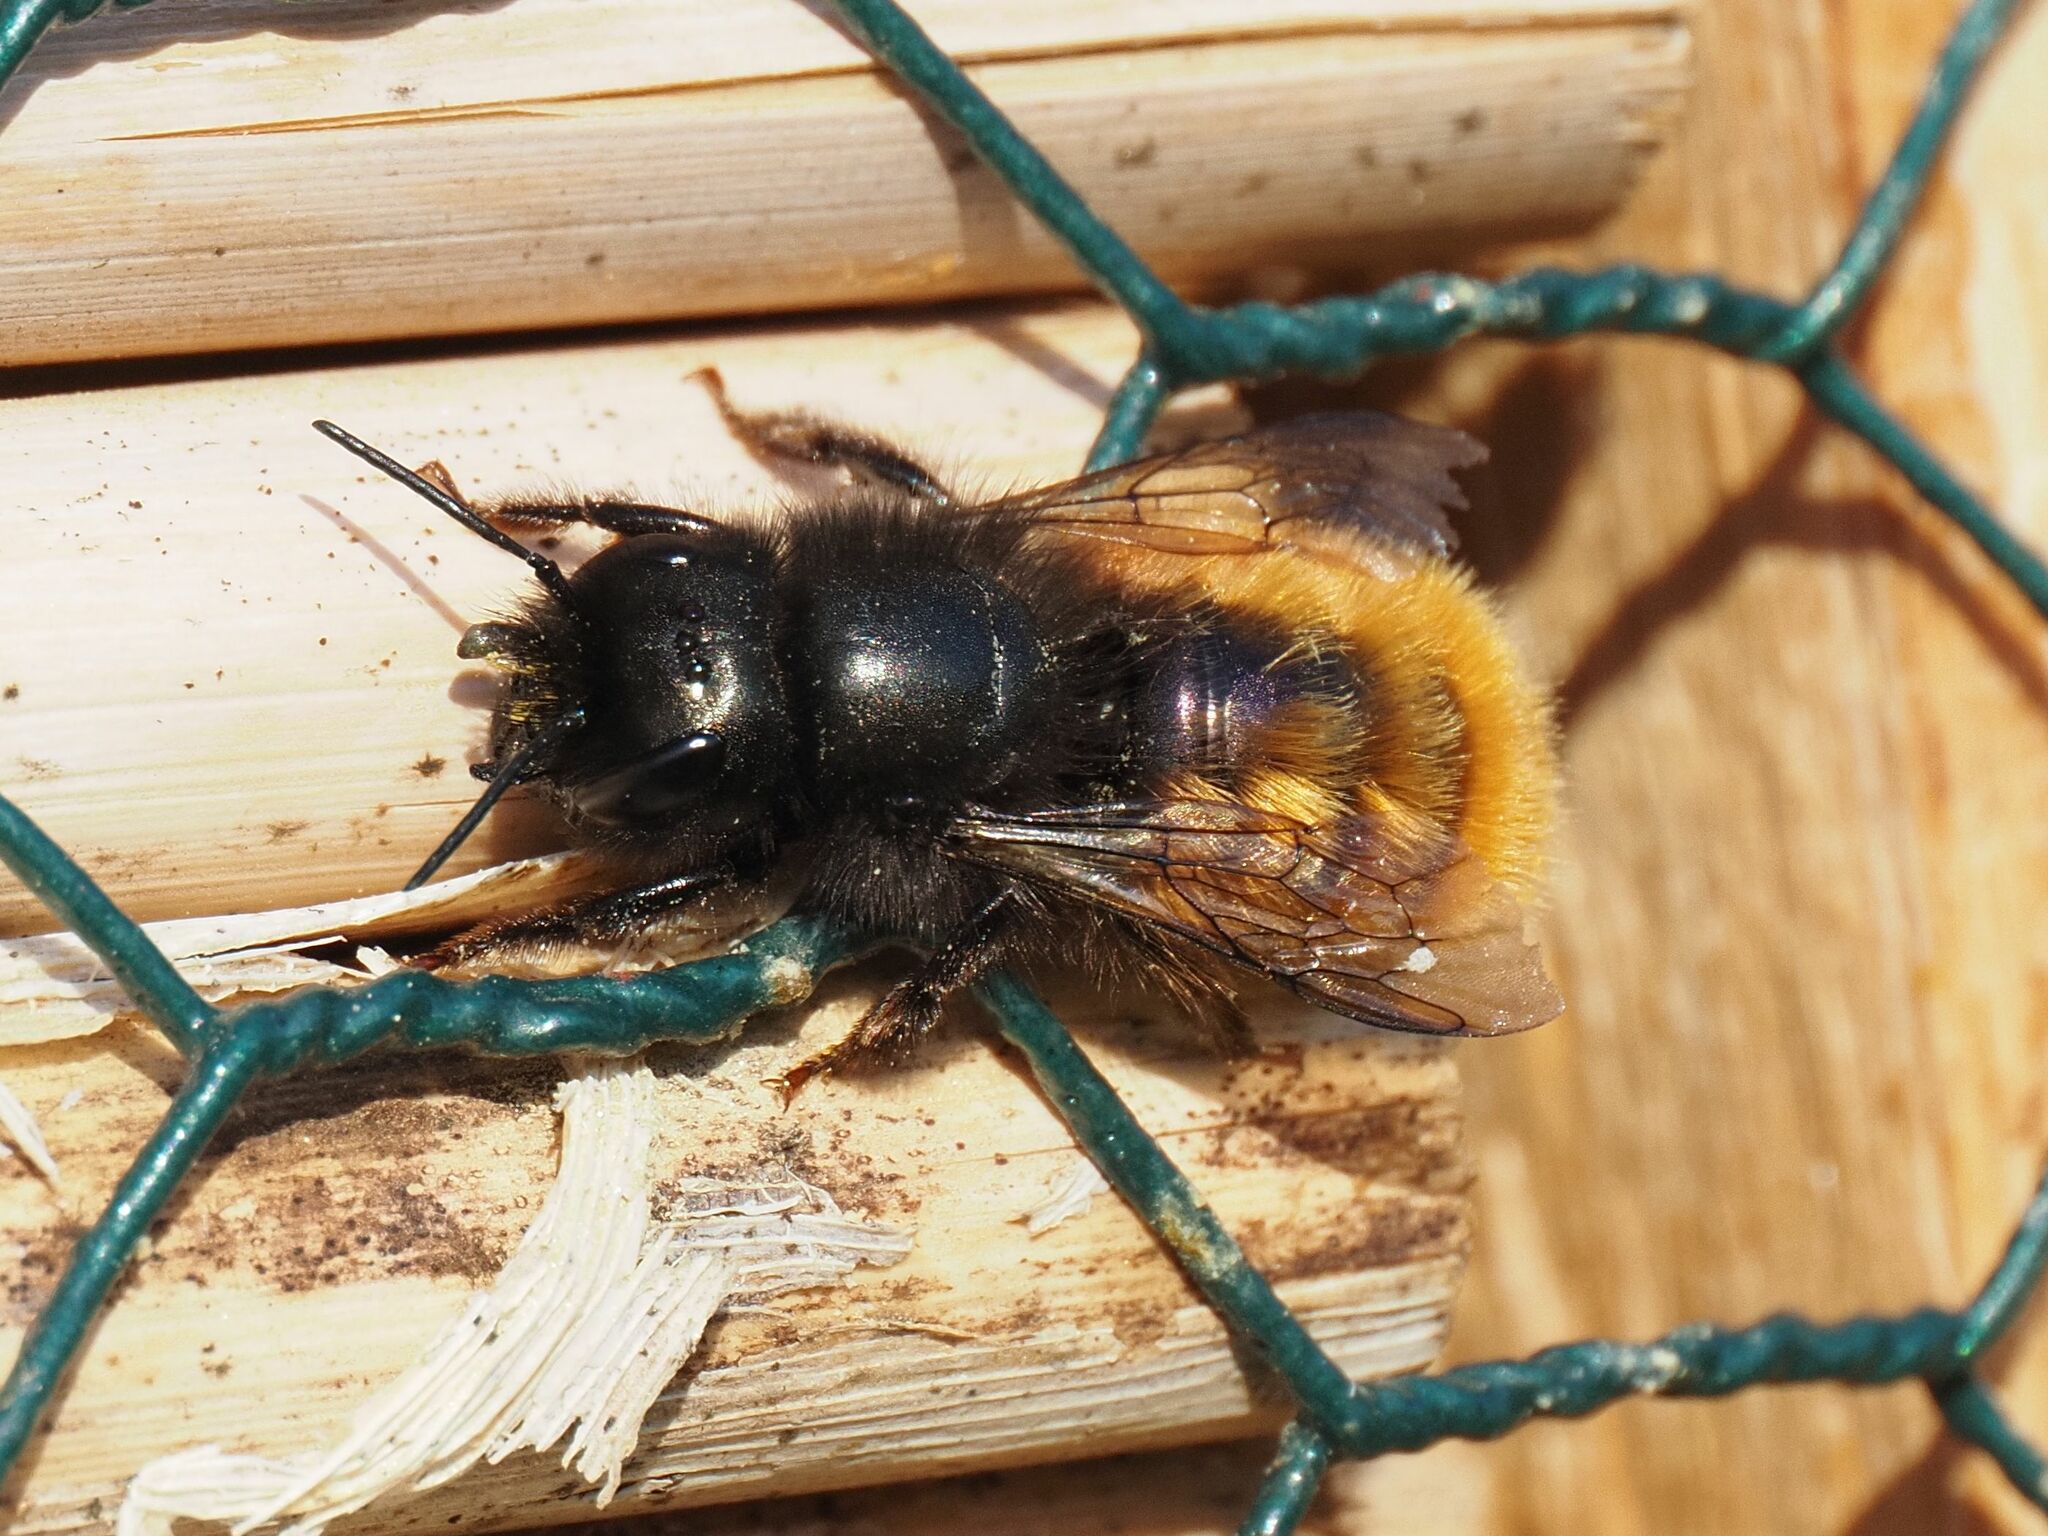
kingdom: Animalia
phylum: Arthropoda
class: Insecta
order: Hymenoptera
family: Megachilidae
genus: Osmia
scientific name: Osmia cornuta
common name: Mason bee
